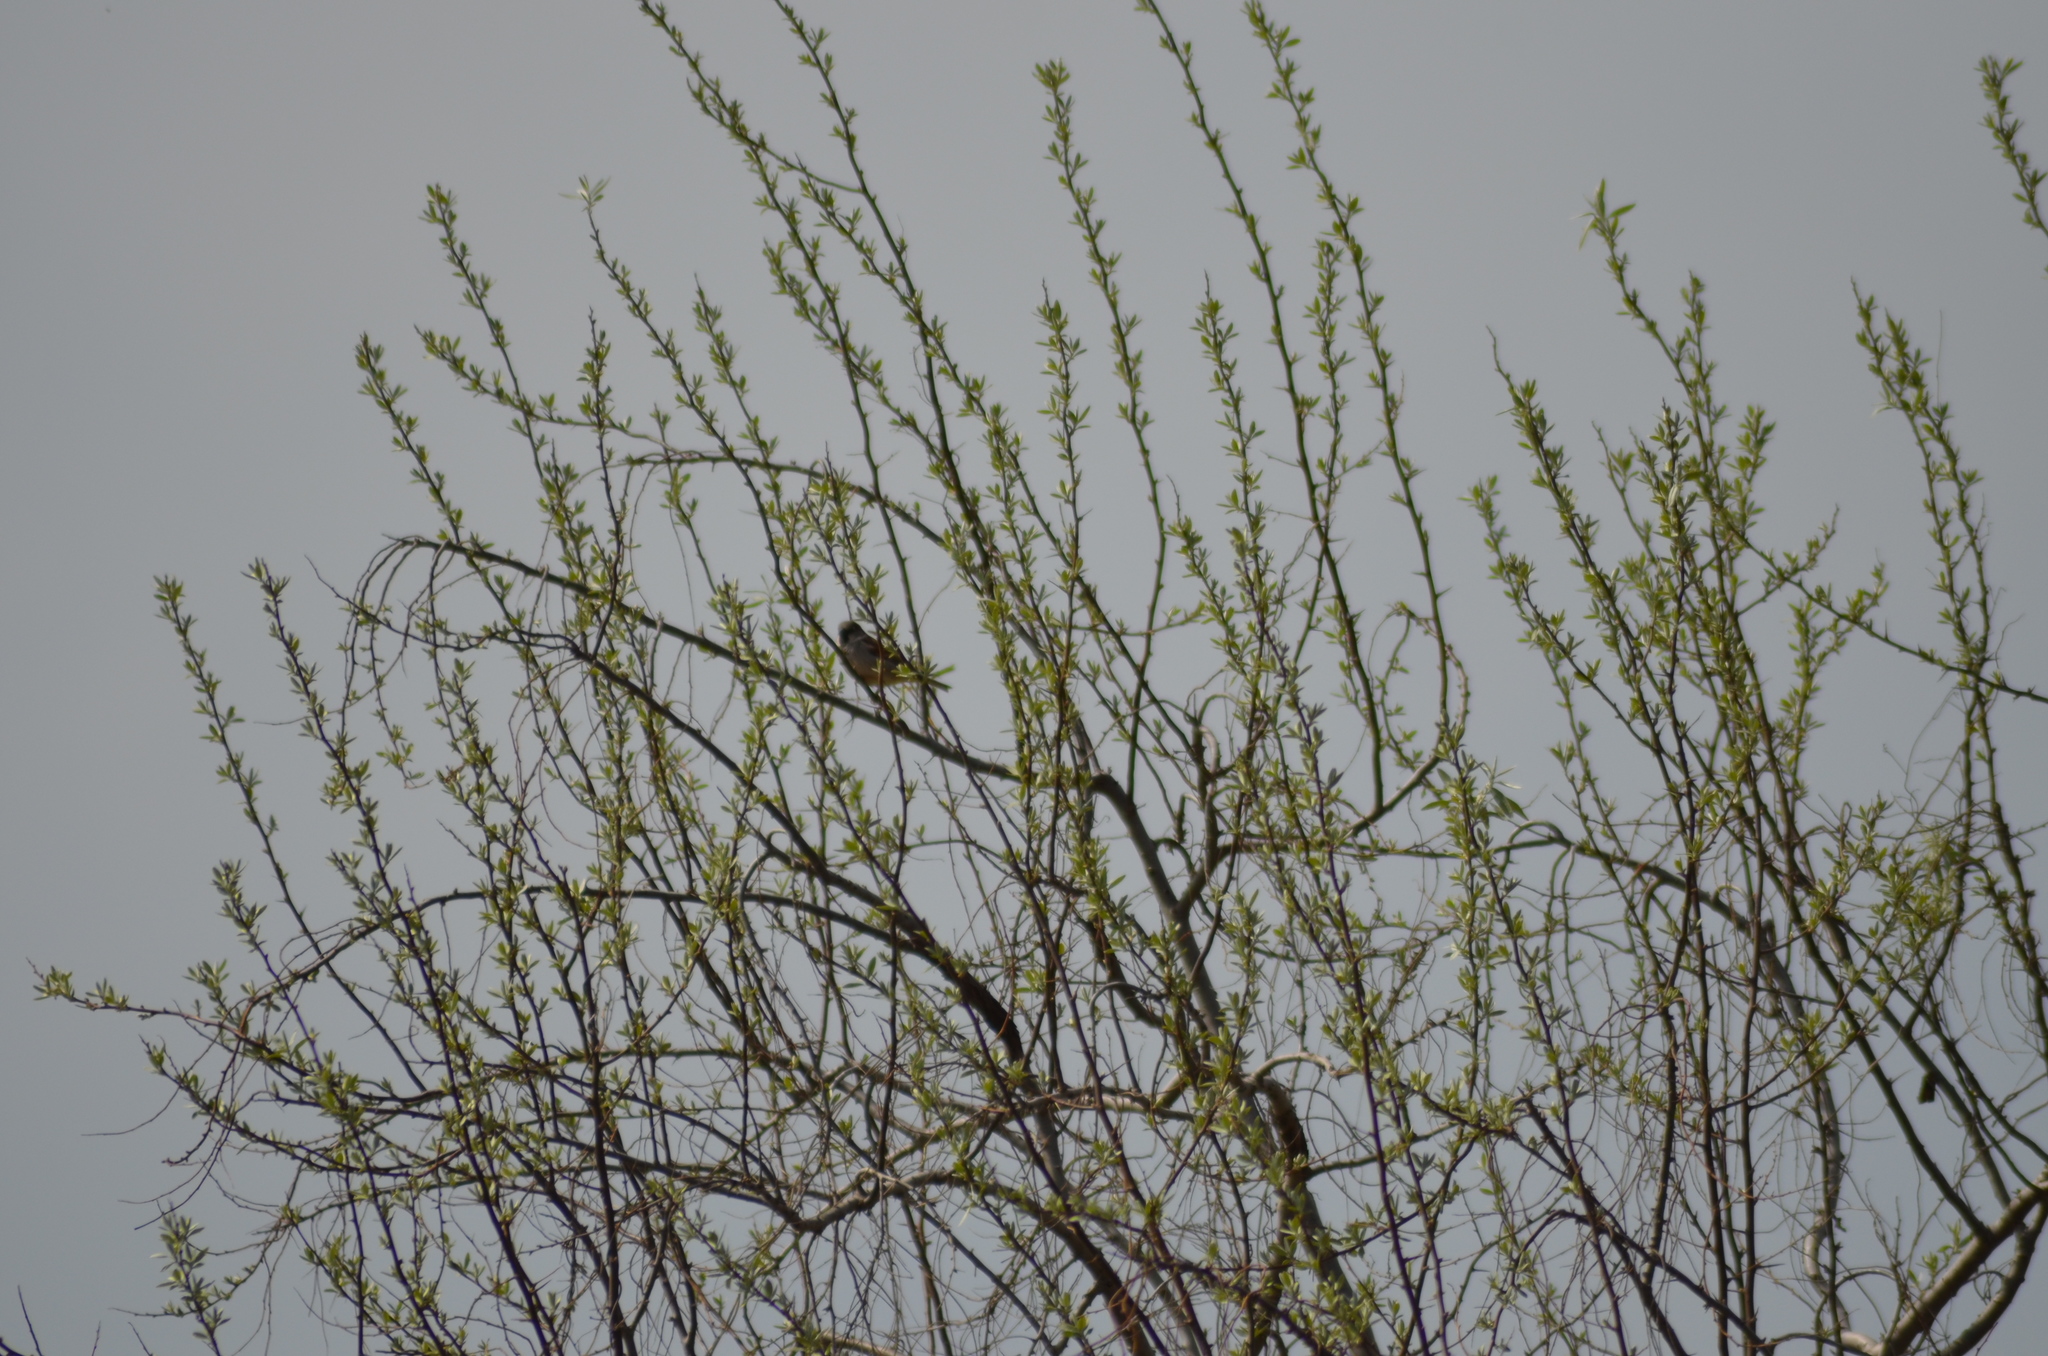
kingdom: Animalia
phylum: Chordata
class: Aves
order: Passeriformes
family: Passeridae
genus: Passer
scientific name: Passer domesticus
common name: House sparrow
